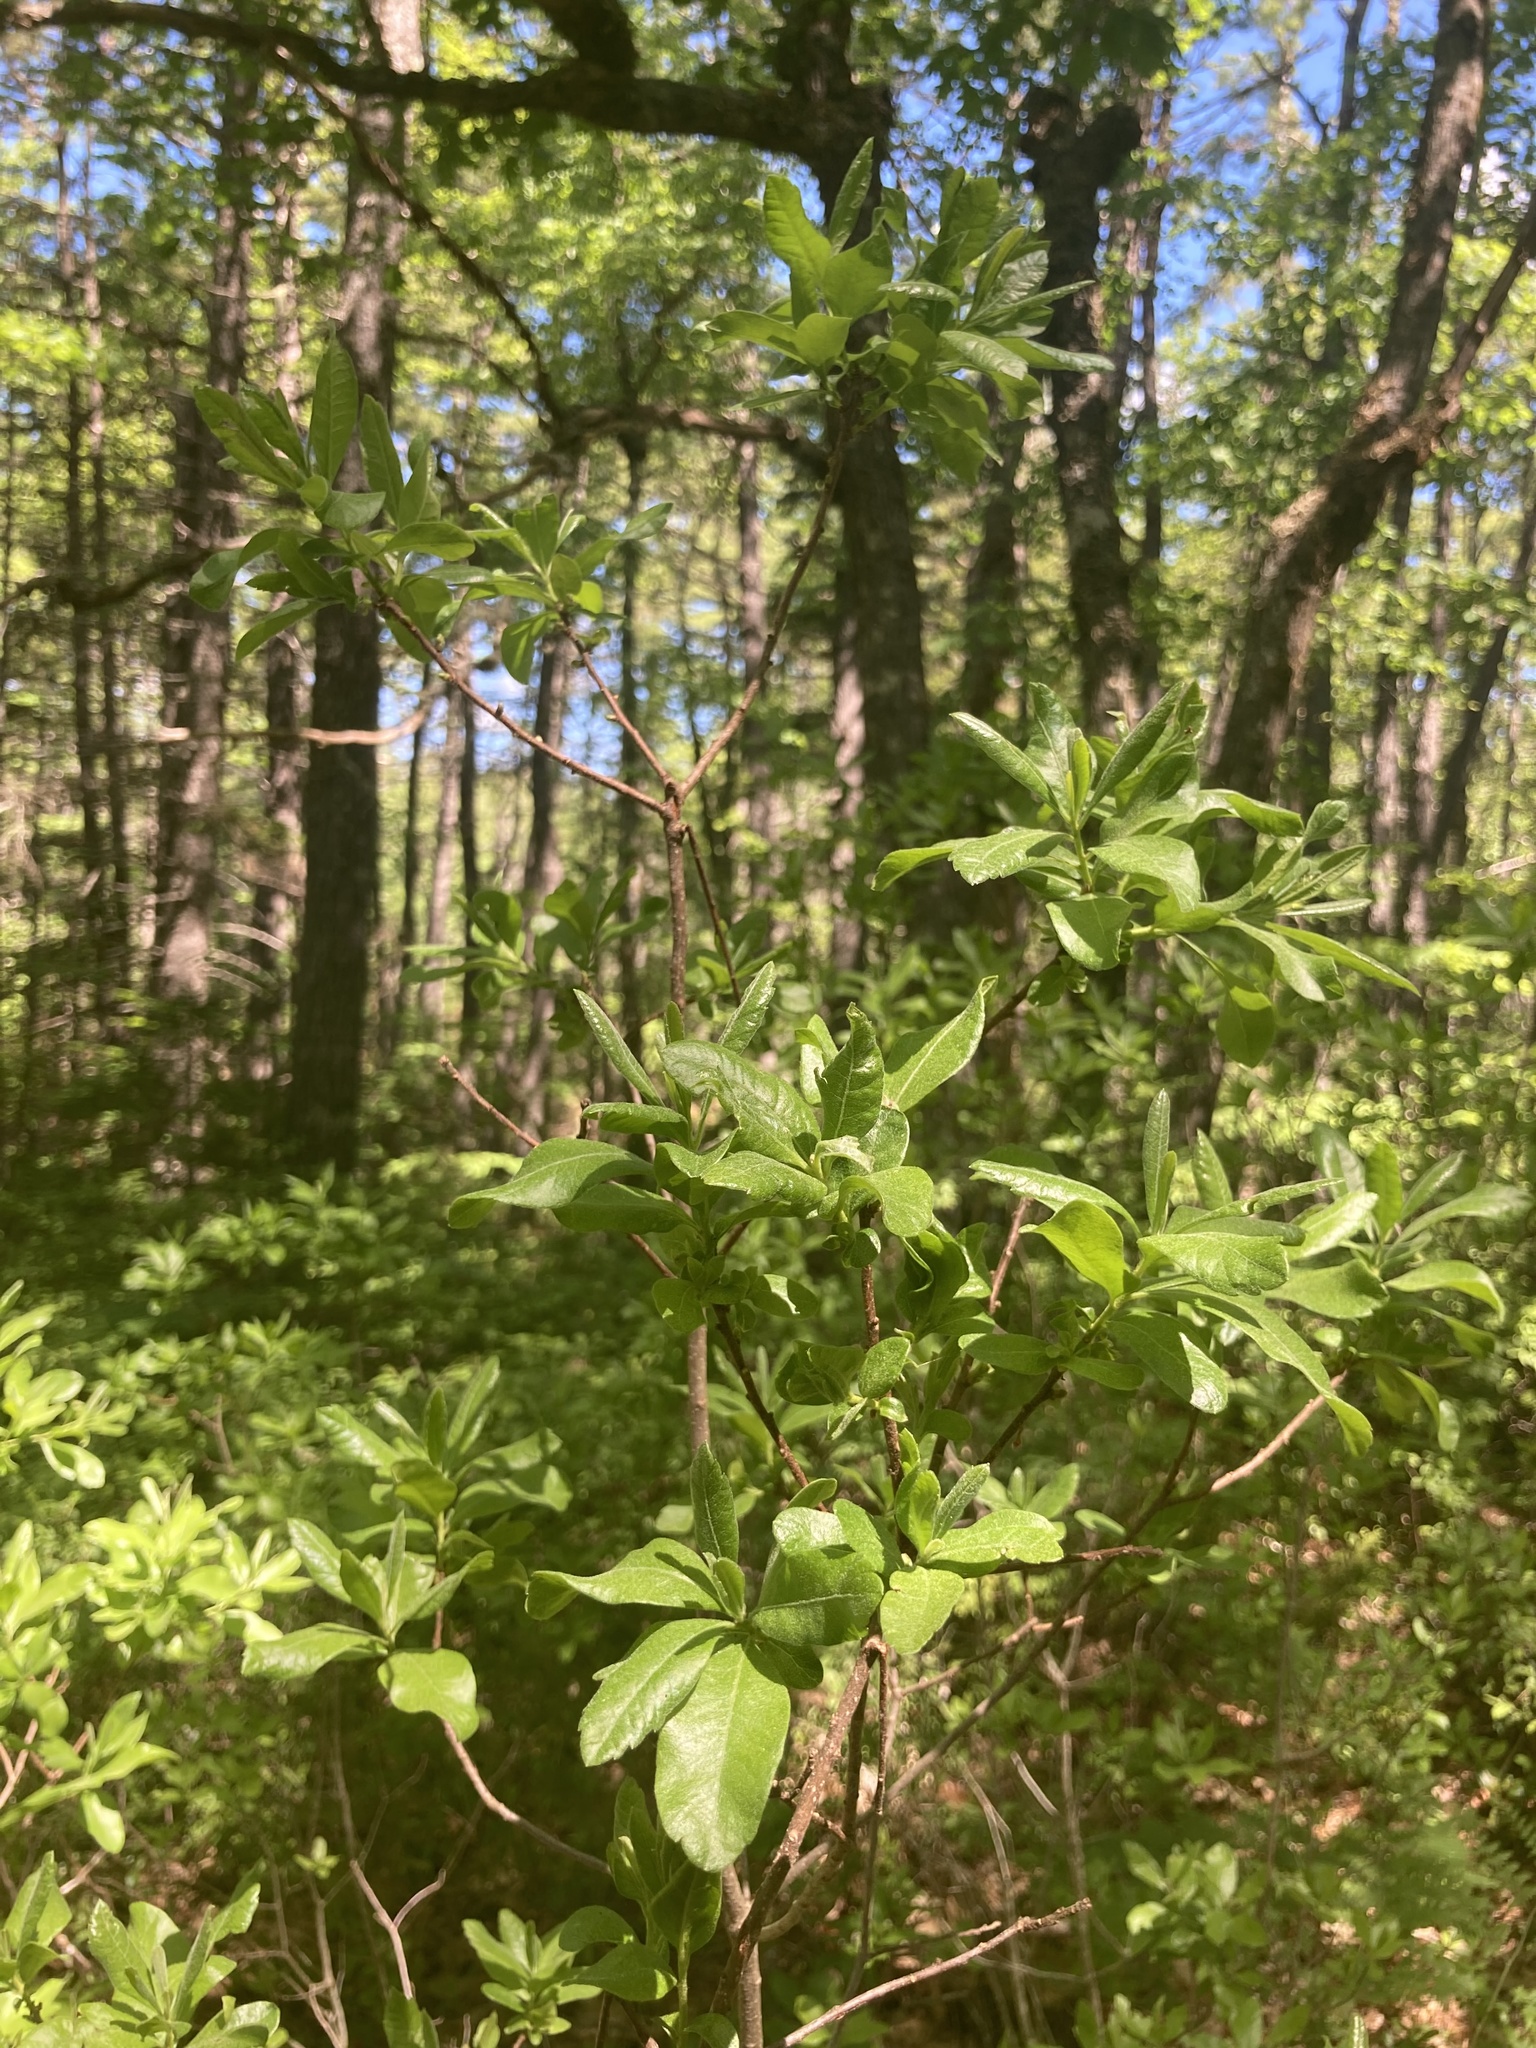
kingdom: Plantae
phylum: Tracheophyta
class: Magnoliopsida
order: Fagales
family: Myricaceae
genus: Morella
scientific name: Morella pensylvanica
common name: Northern bayberry
